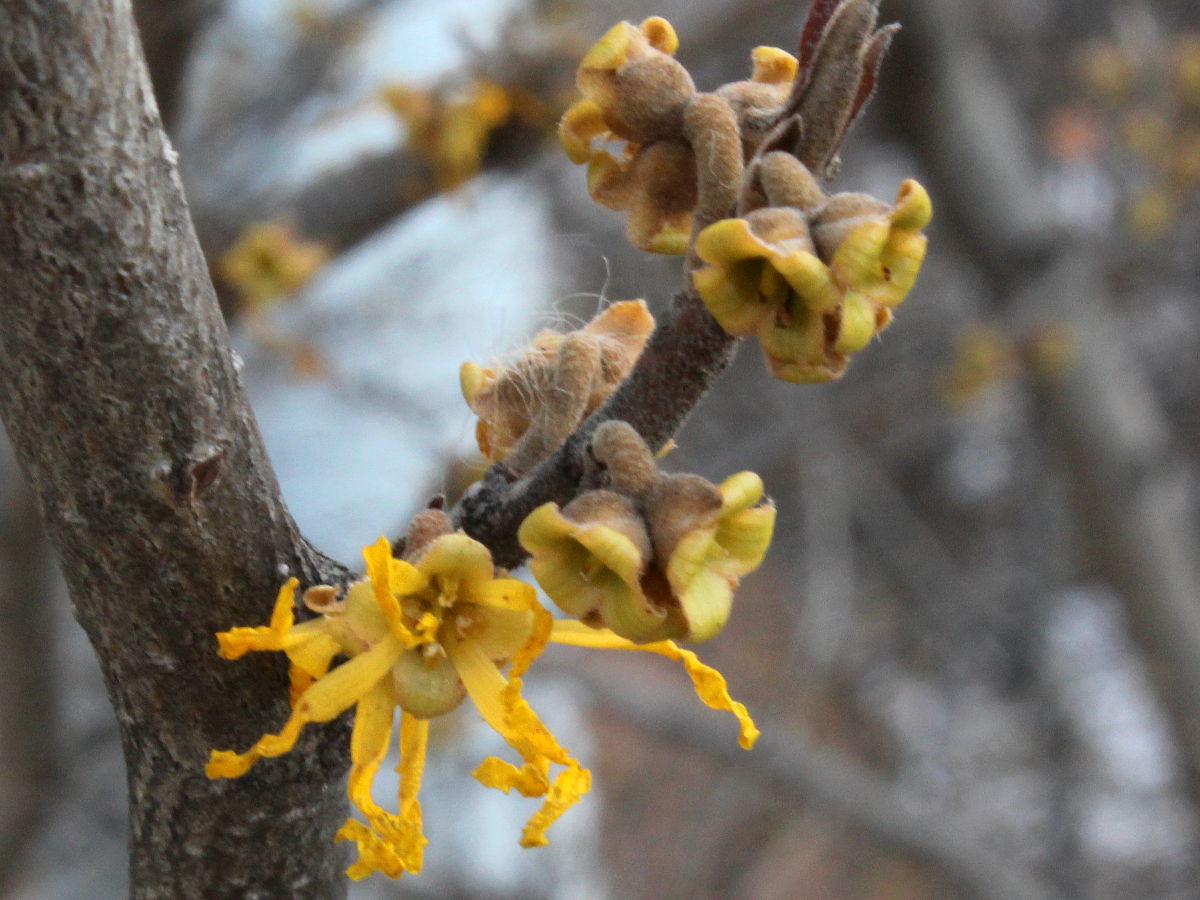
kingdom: Plantae
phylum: Tracheophyta
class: Magnoliopsida
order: Saxifragales
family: Hamamelidaceae
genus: Hamamelis
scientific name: Hamamelis virginiana
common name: Witch-hazel
